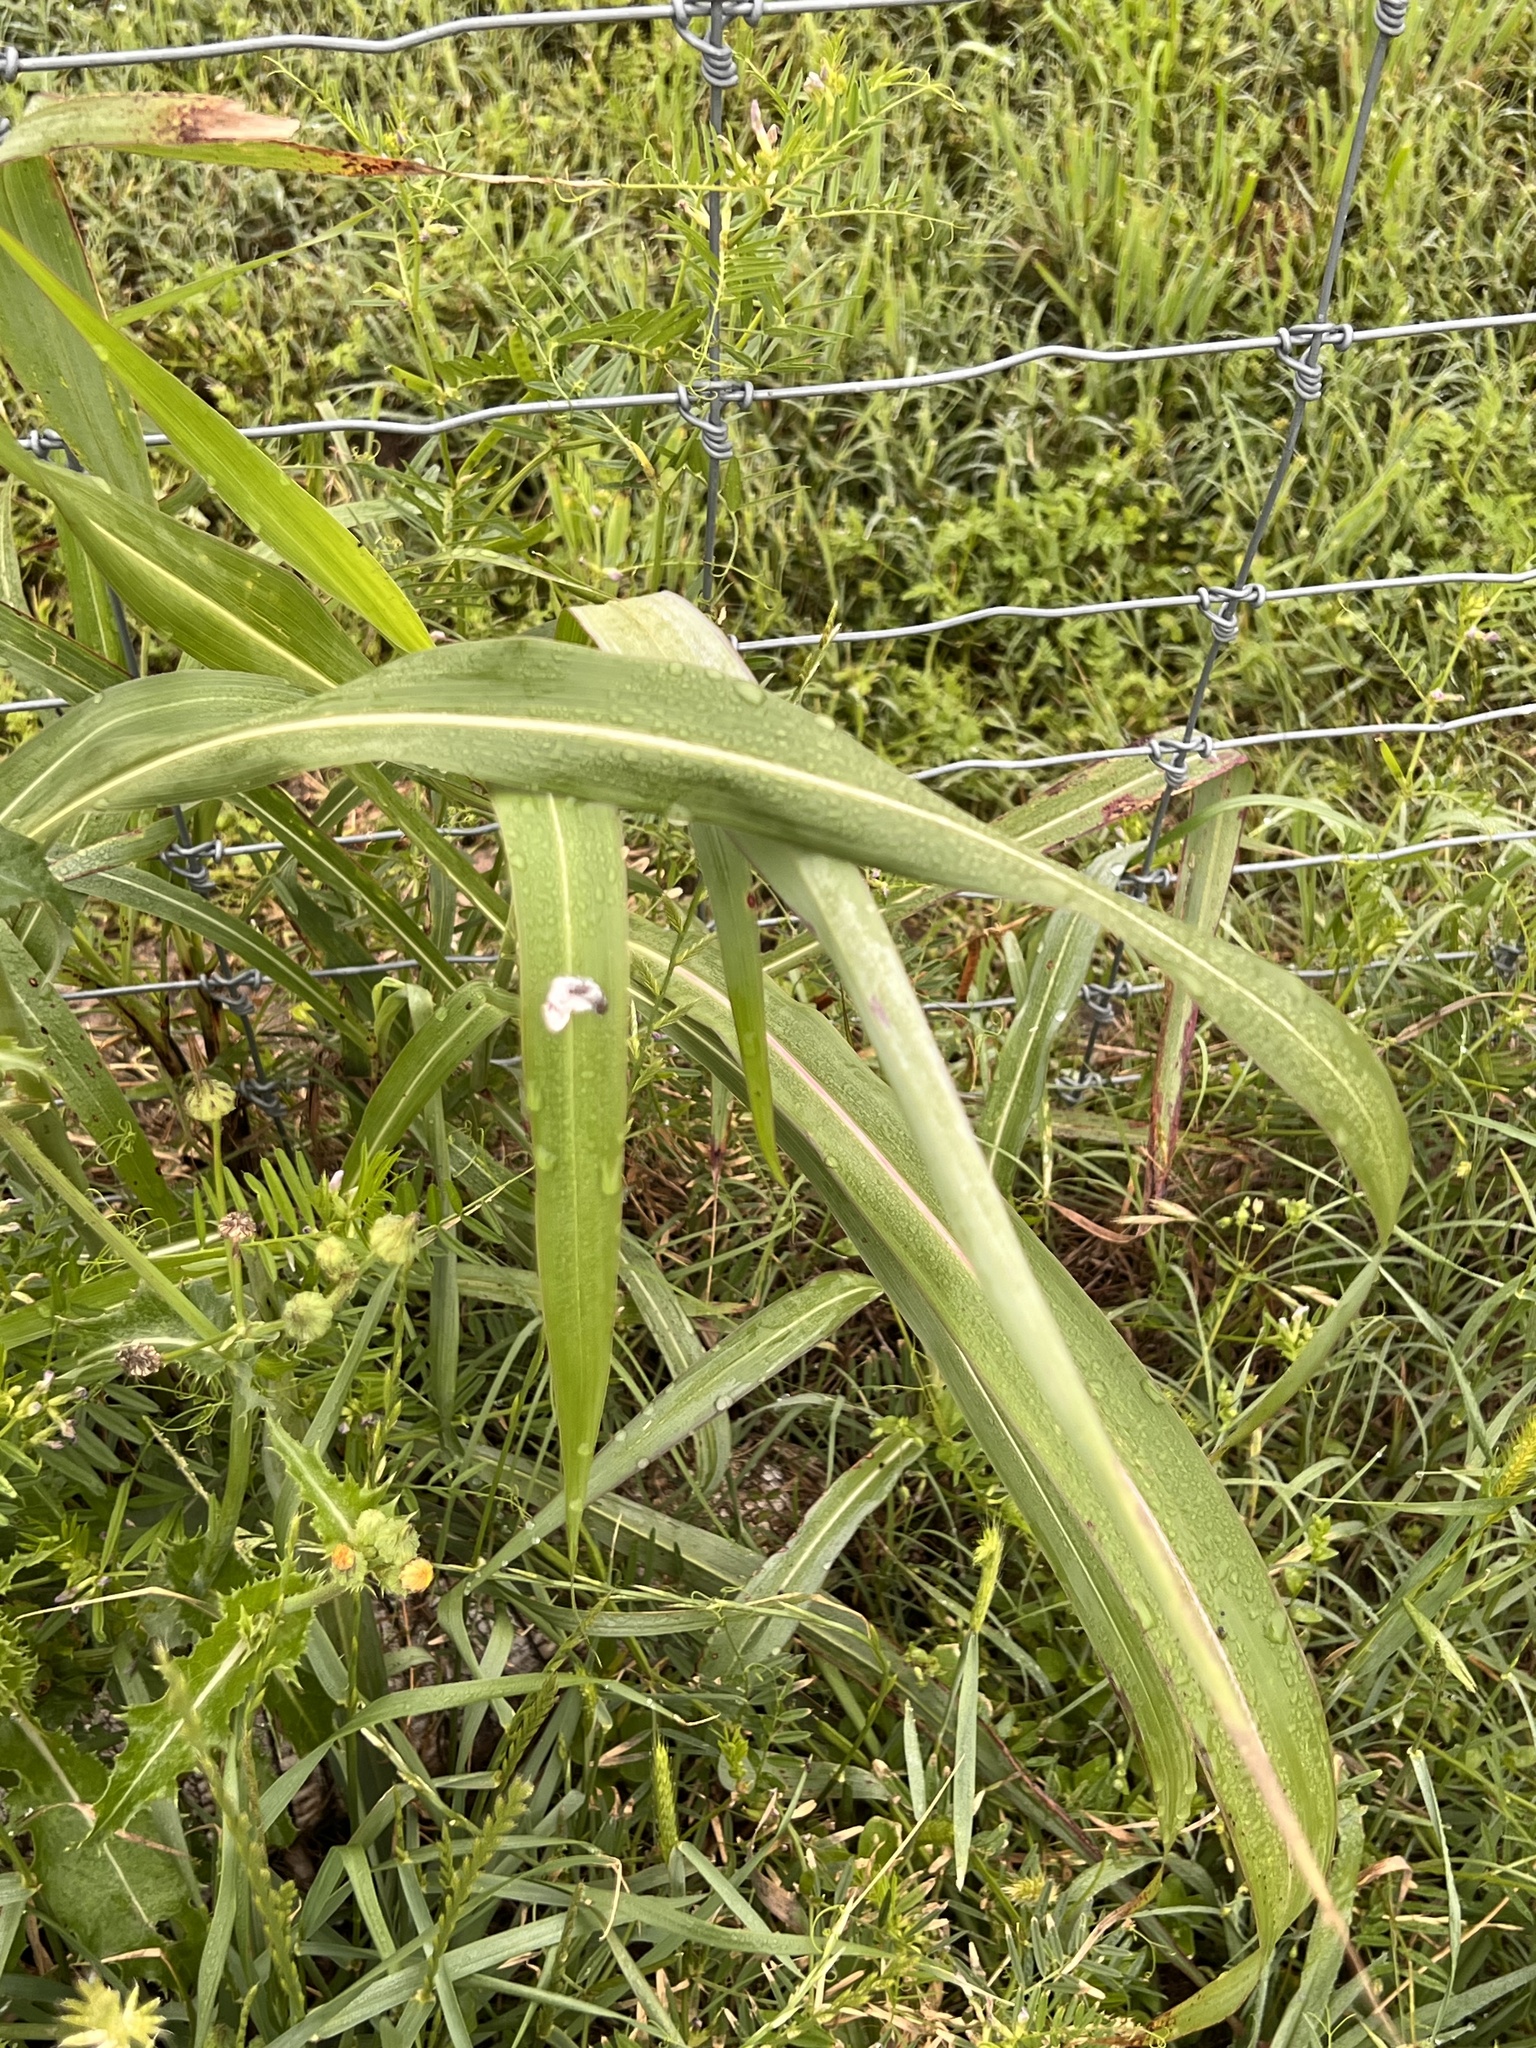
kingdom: Plantae
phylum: Tracheophyta
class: Liliopsida
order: Poales
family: Poaceae
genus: Sorghum
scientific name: Sorghum halepense
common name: Johnson-grass
